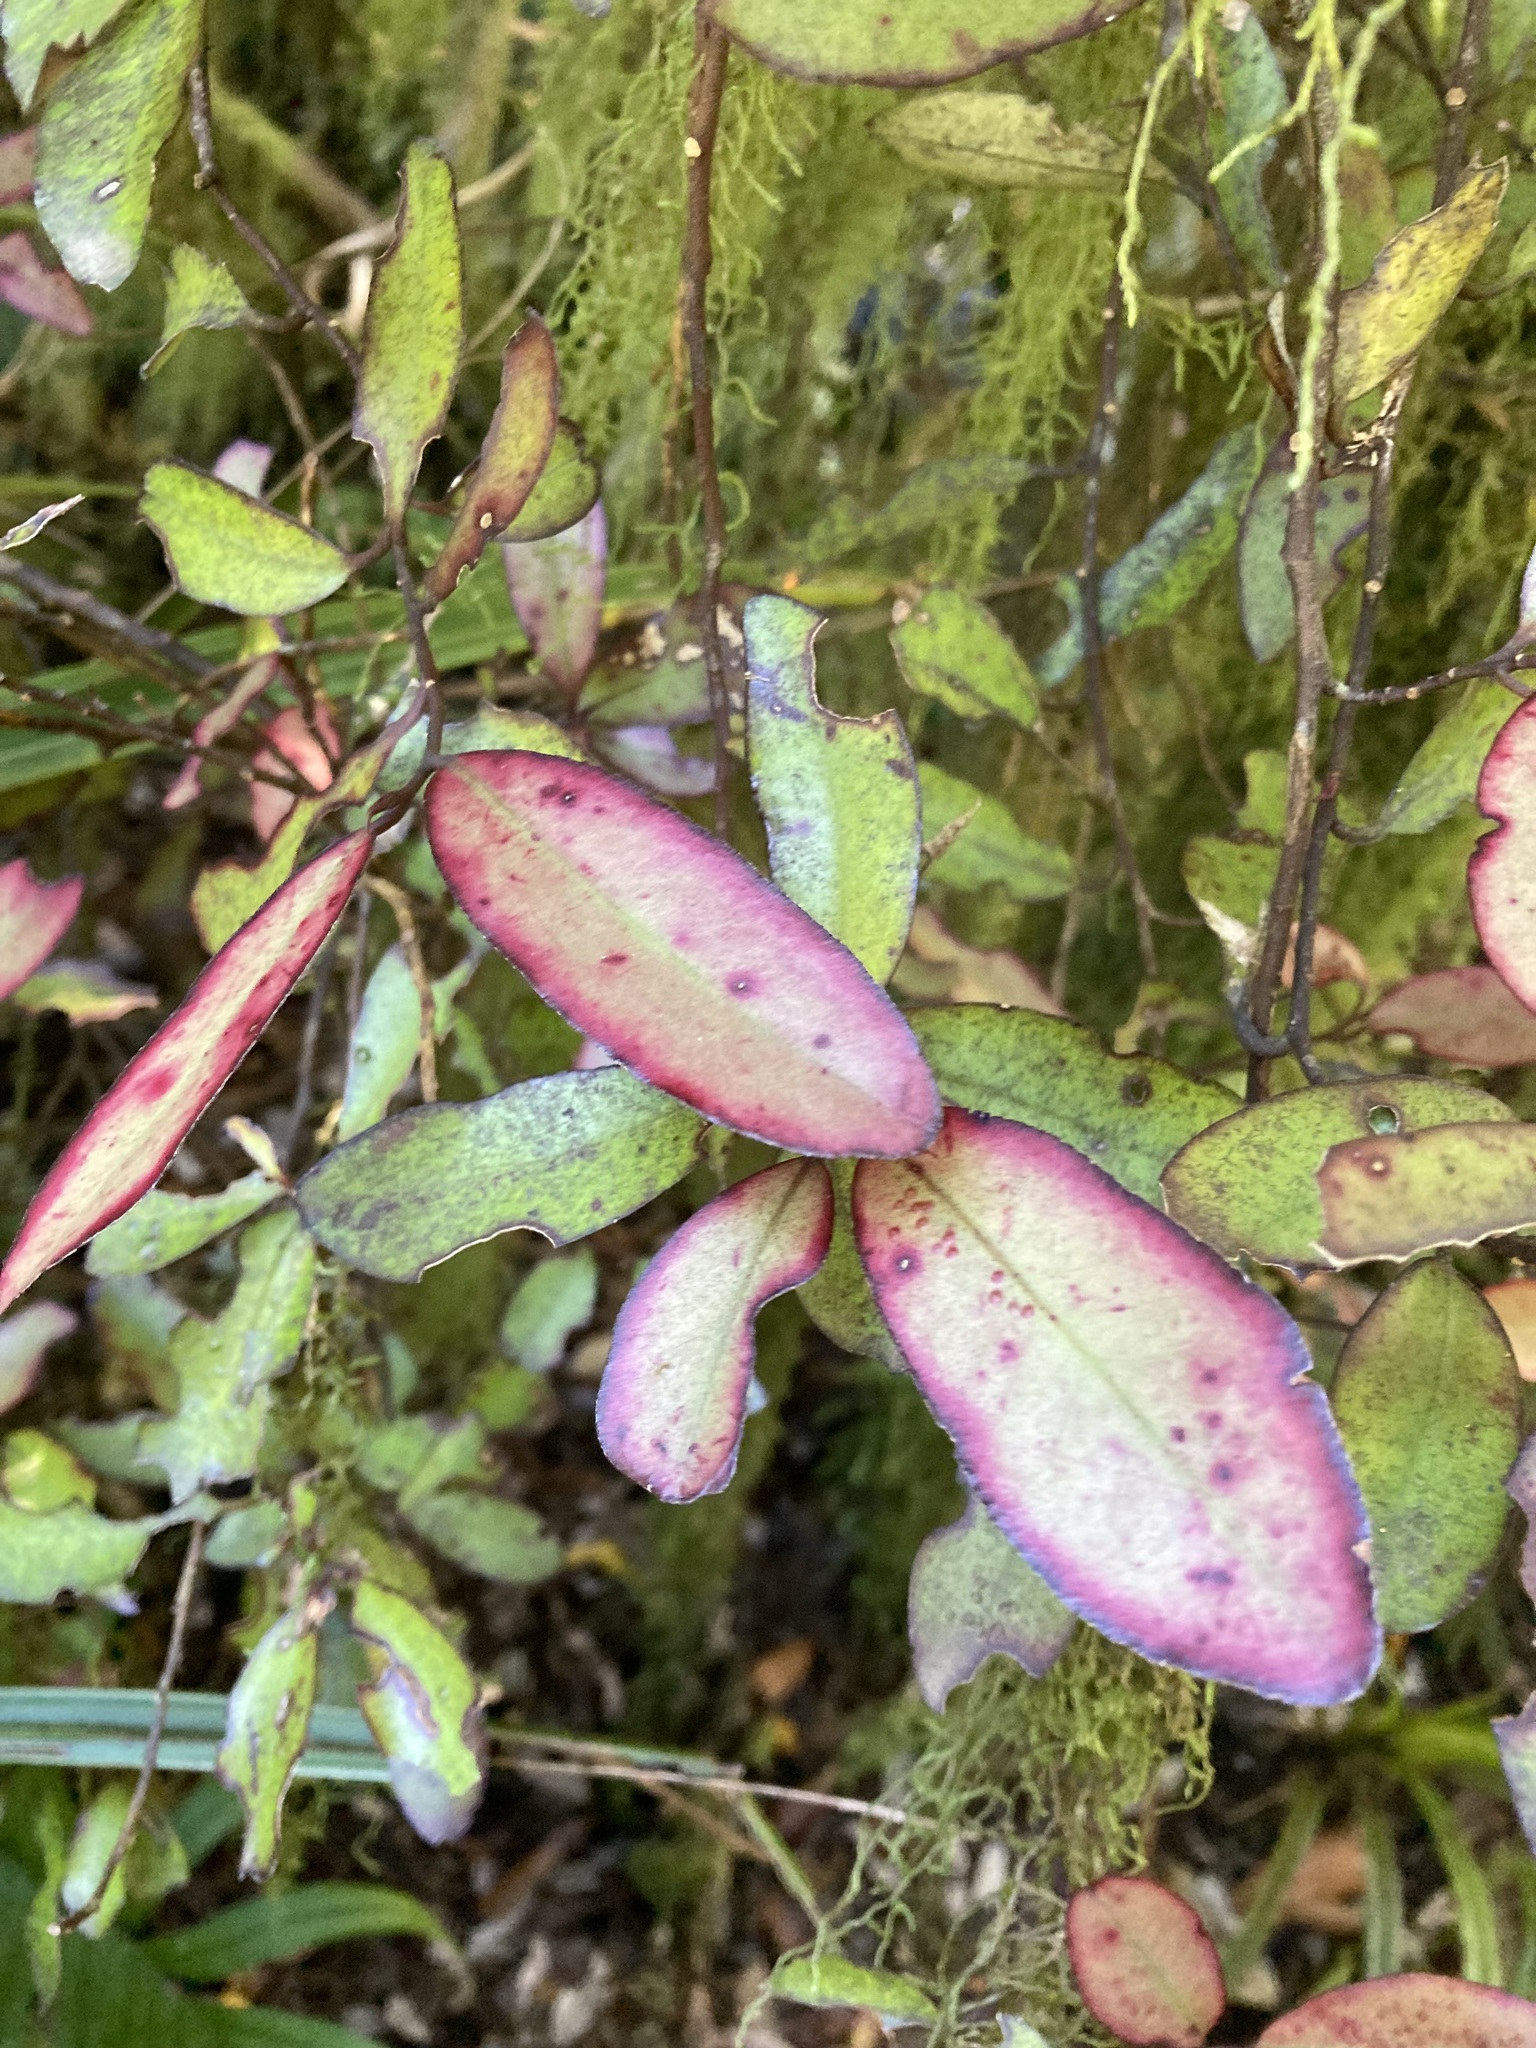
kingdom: Plantae
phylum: Tracheophyta
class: Magnoliopsida
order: Canellales
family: Winteraceae
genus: Pseudowintera
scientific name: Pseudowintera colorata
